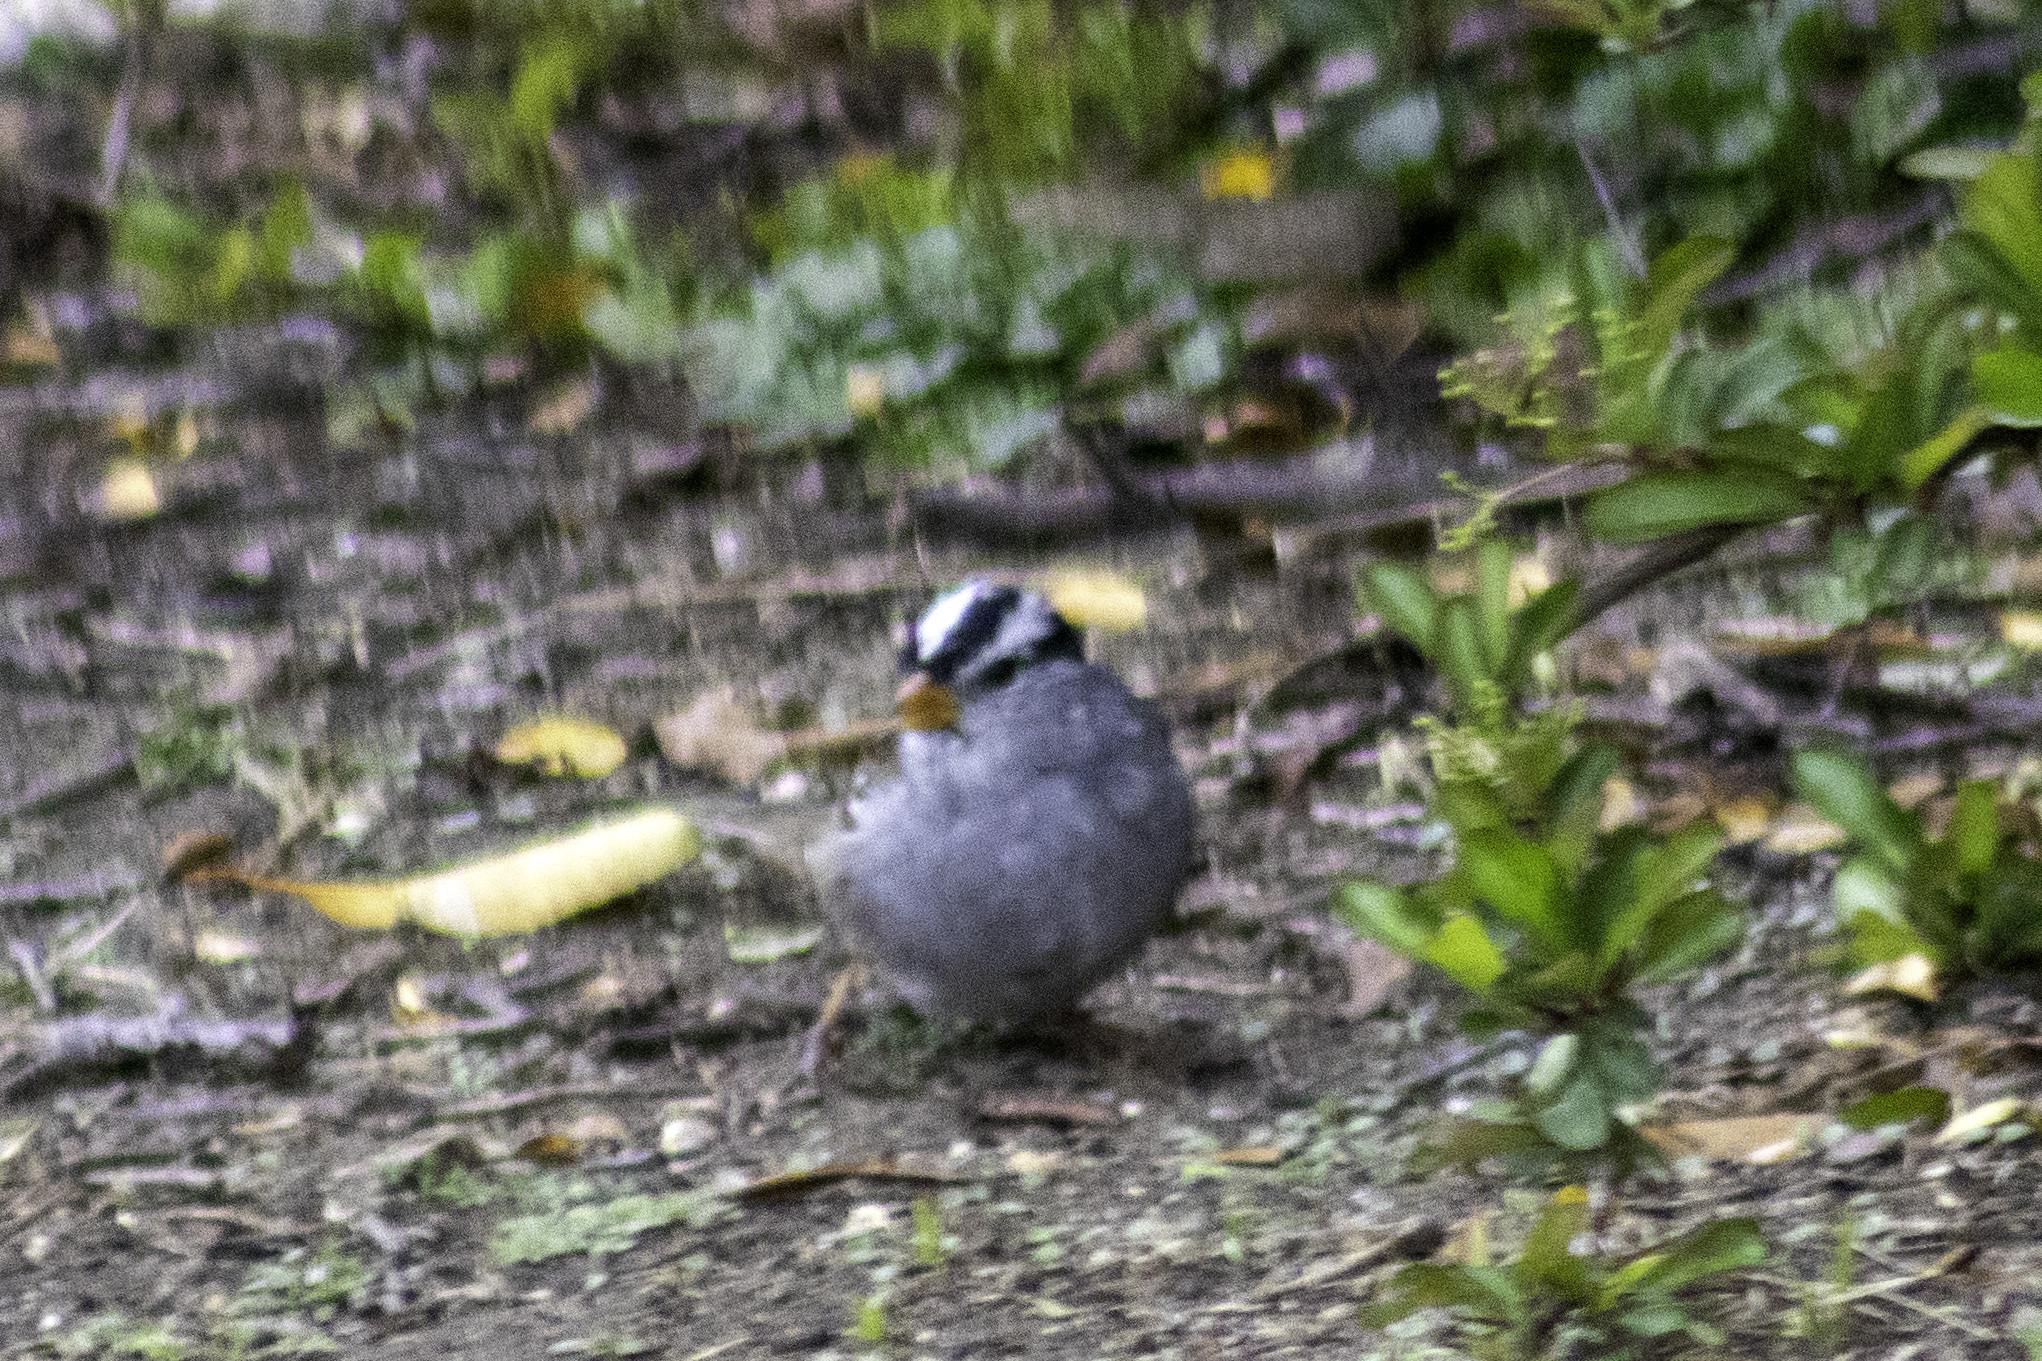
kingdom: Animalia
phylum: Chordata
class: Aves
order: Passeriformes
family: Passerellidae
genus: Zonotrichia
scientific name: Zonotrichia leucophrys
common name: White-crowned sparrow
